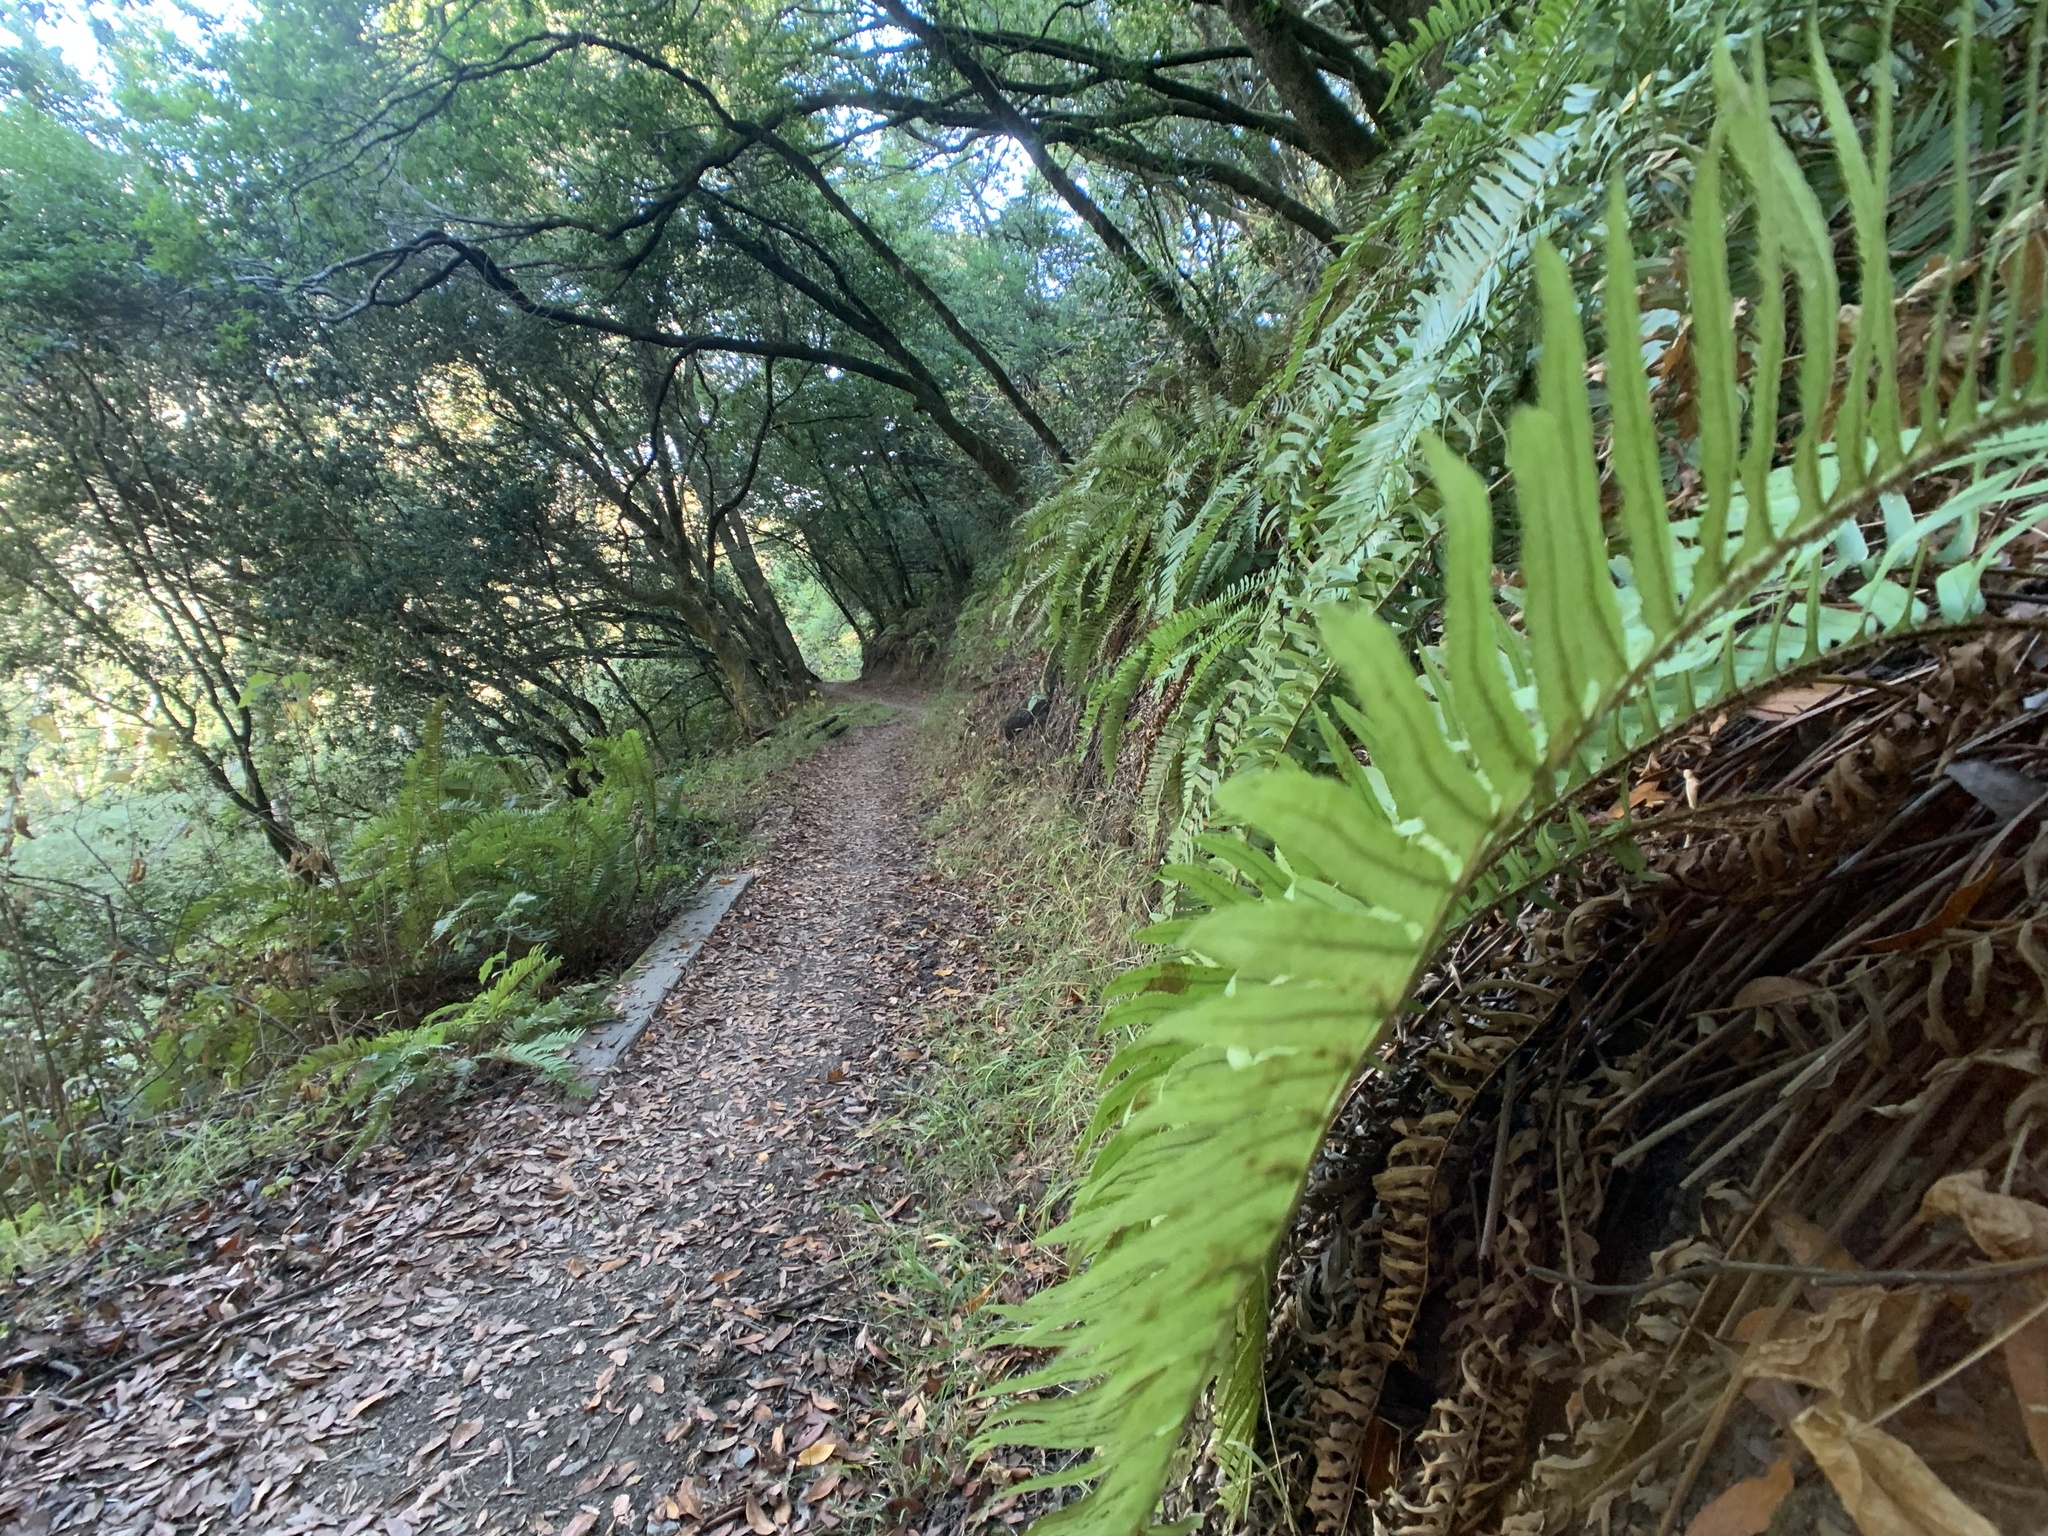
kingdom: Plantae
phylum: Tracheophyta
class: Polypodiopsida
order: Polypodiales
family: Dryopteridaceae
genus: Polystichum
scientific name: Polystichum munitum
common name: Western sword-fern
